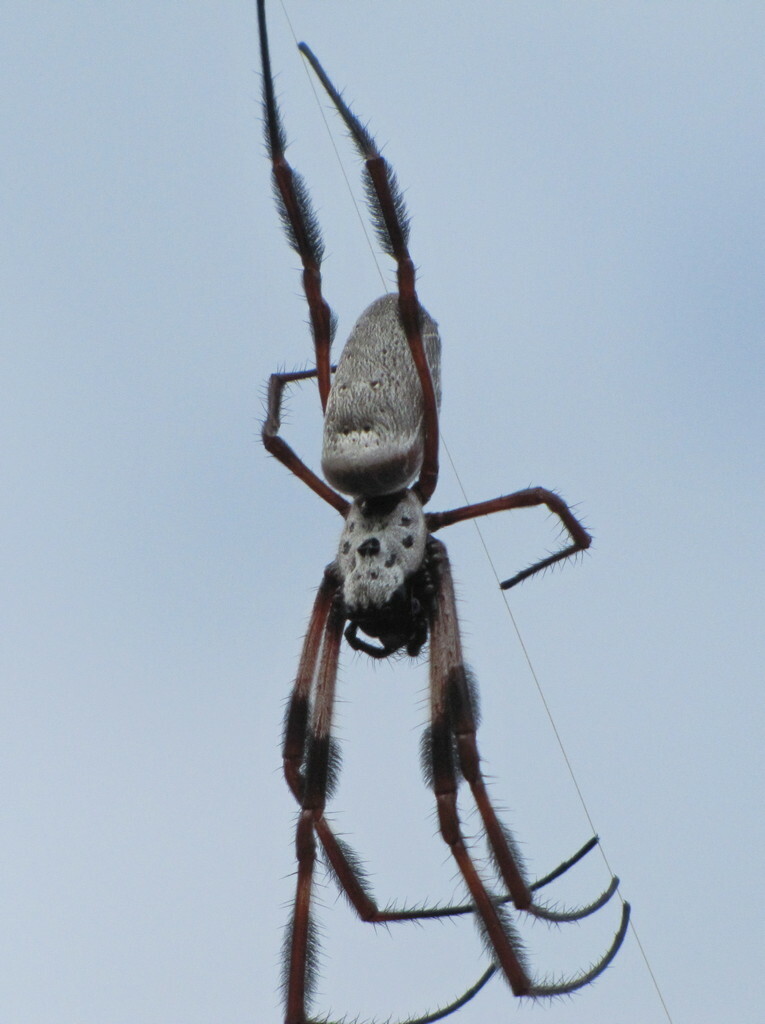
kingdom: Animalia
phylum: Arthropoda
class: Arachnida
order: Araneae
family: Araneidae
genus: Trichonephila
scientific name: Trichonephila edulis
